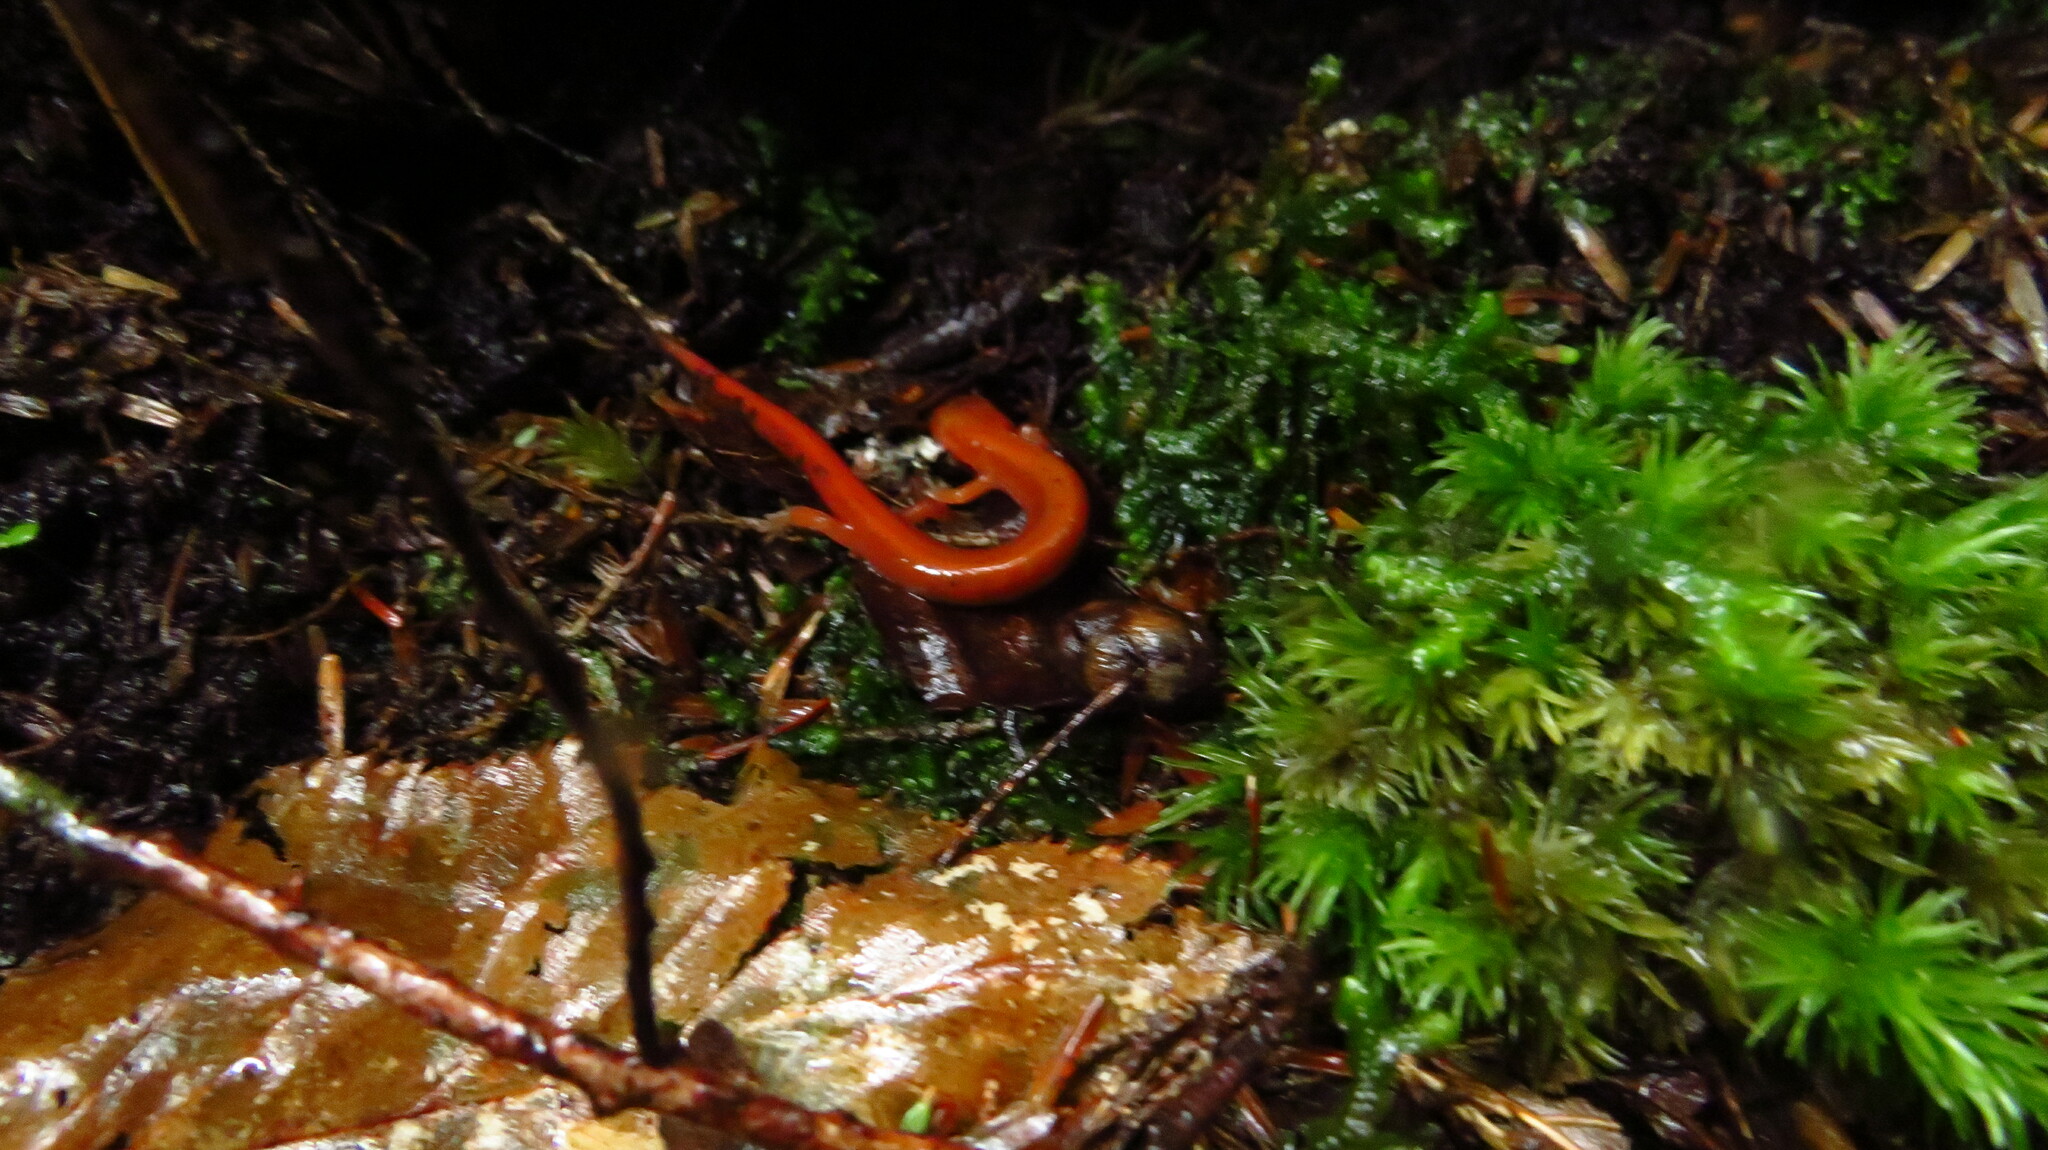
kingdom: Animalia
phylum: Chordata
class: Amphibia
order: Caudata
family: Plethodontidae
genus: Plethodon
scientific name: Plethodon cinereus
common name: Redback salamander
